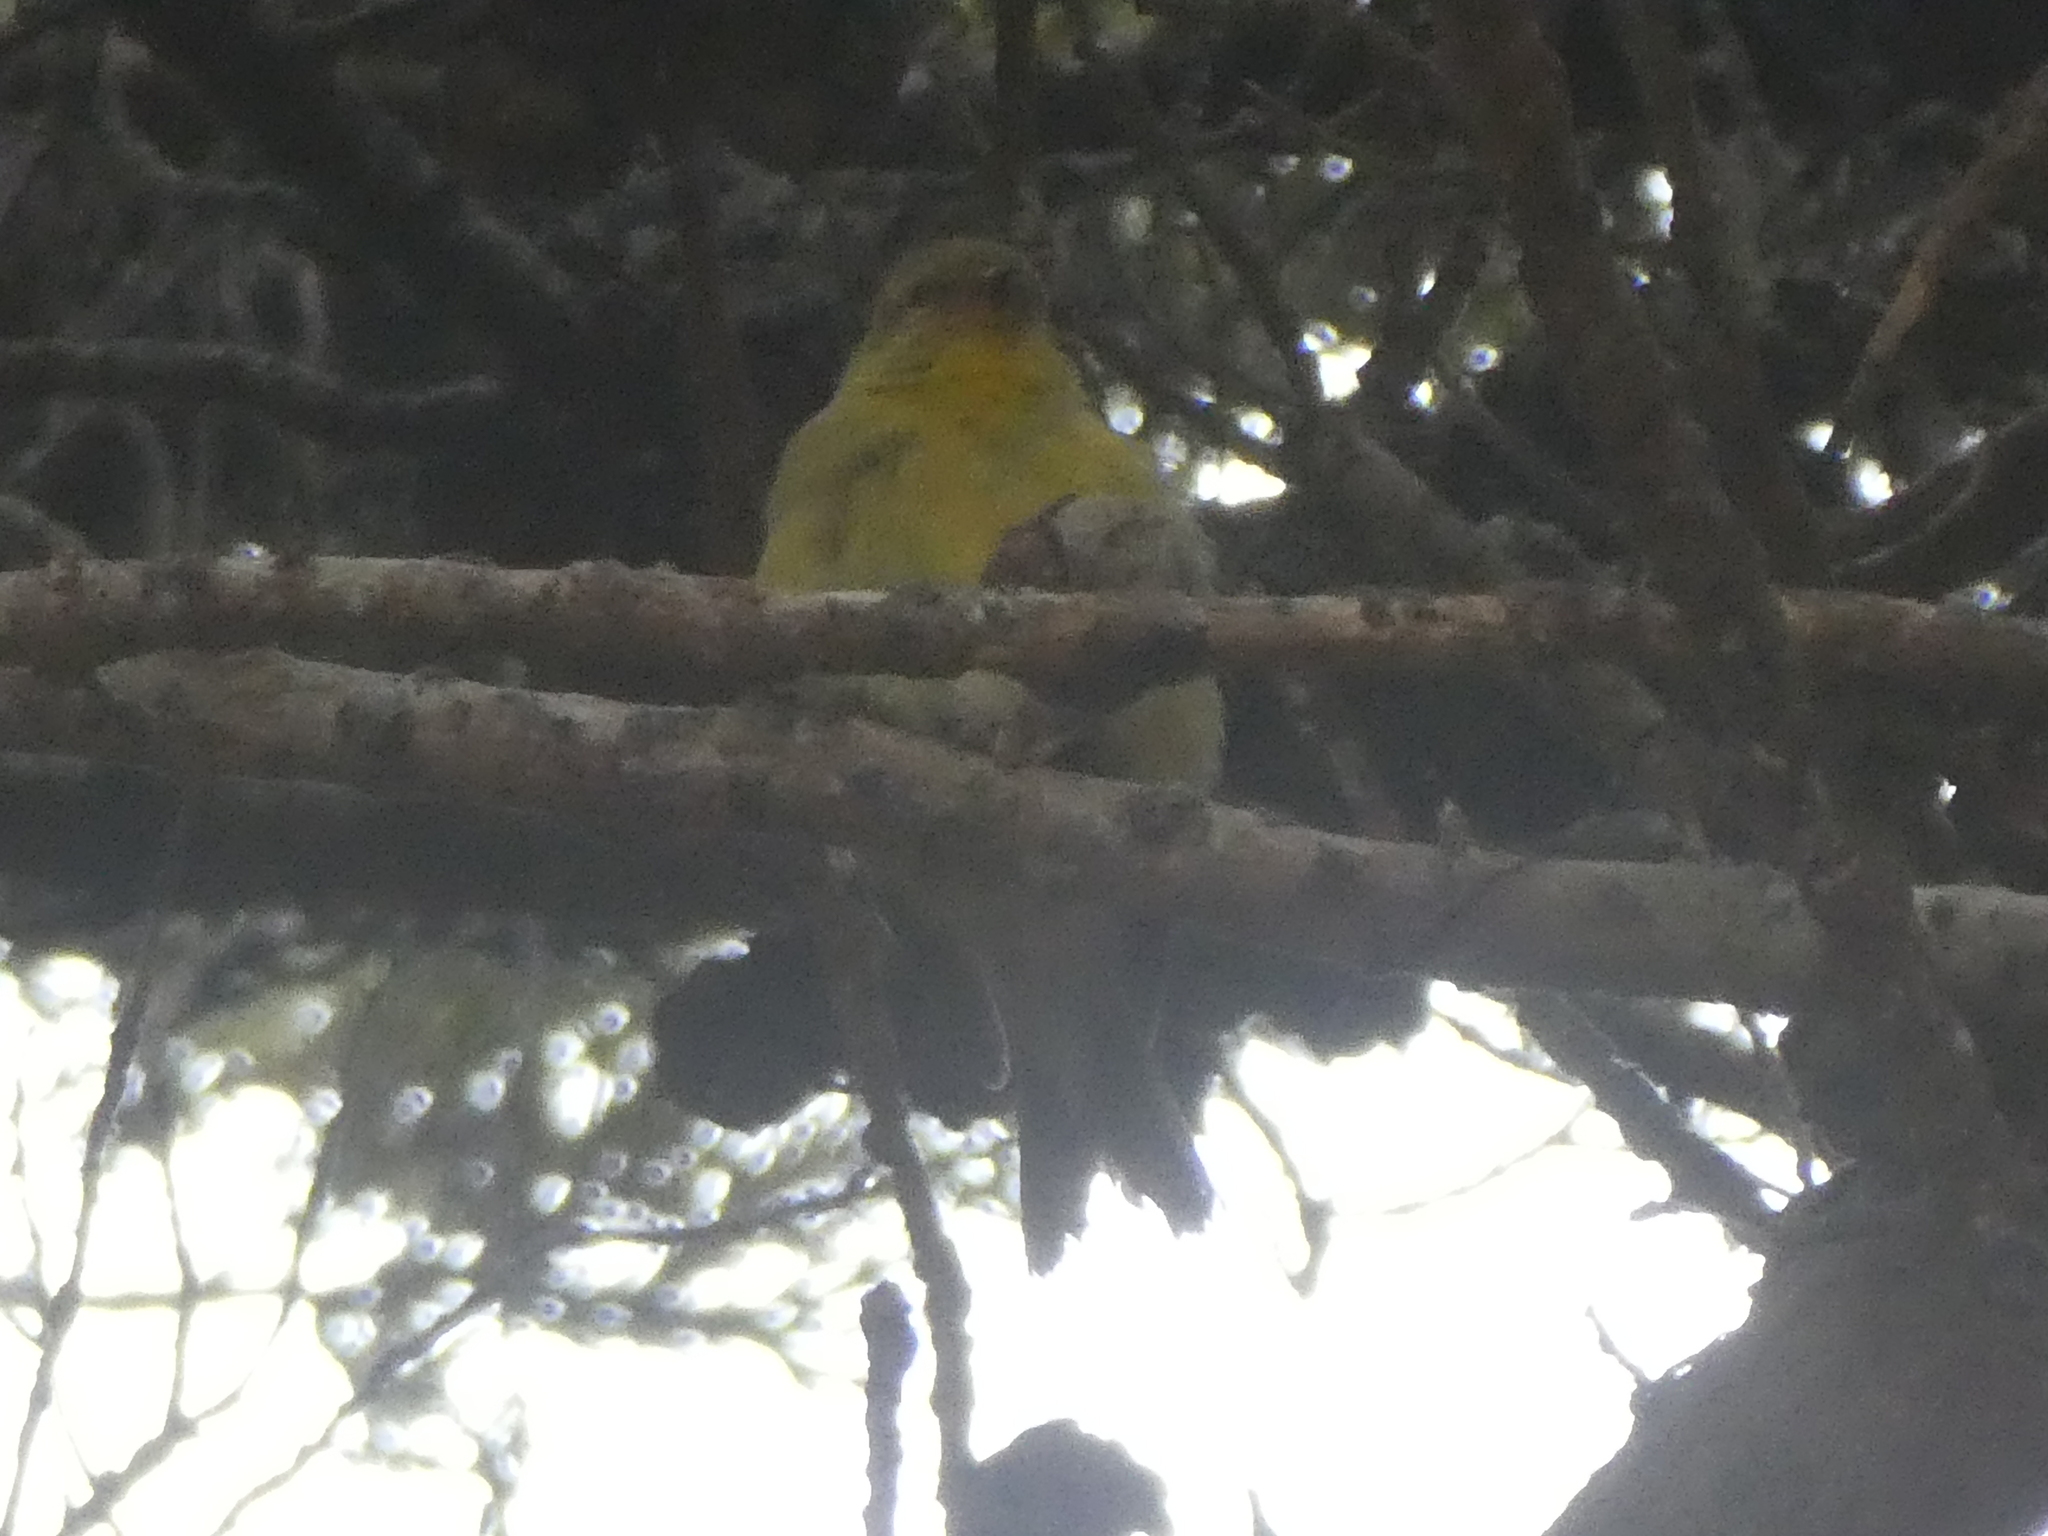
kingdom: Animalia
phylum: Chordata
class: Aves
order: Passeriformes
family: Fringillidae
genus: Spinus
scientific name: Spinus tristis
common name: American goldfinch
